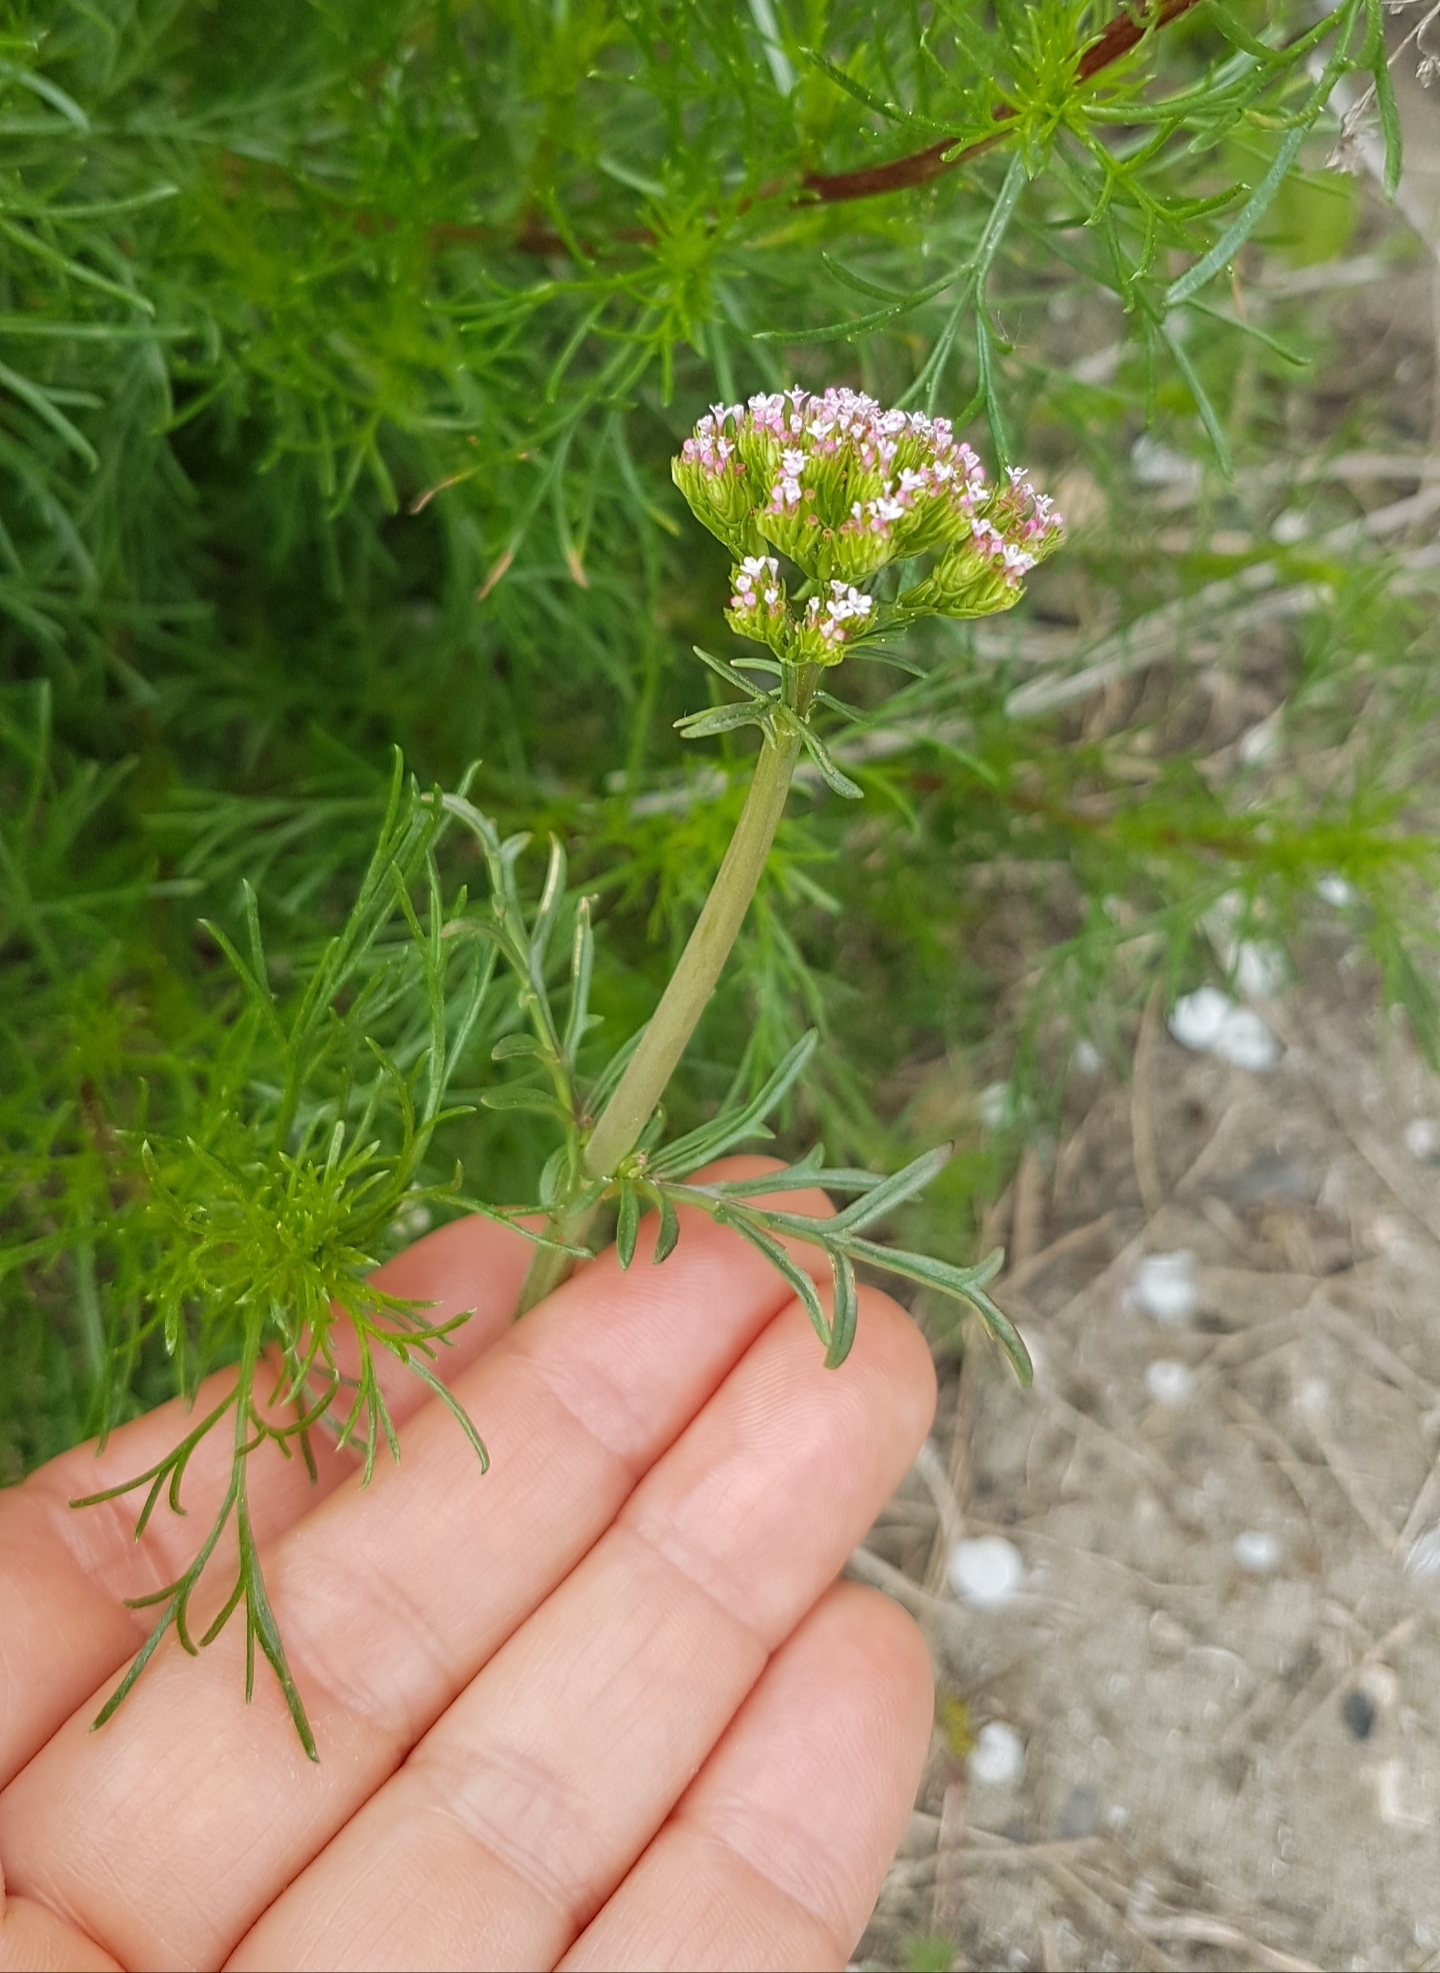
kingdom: Plantae
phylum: Tracheophyta
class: Magnoliopsida
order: Dipsacales
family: Caprifoliaceae
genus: Centranthus
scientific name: Centranthus calcitrapae
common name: Annual valerian
